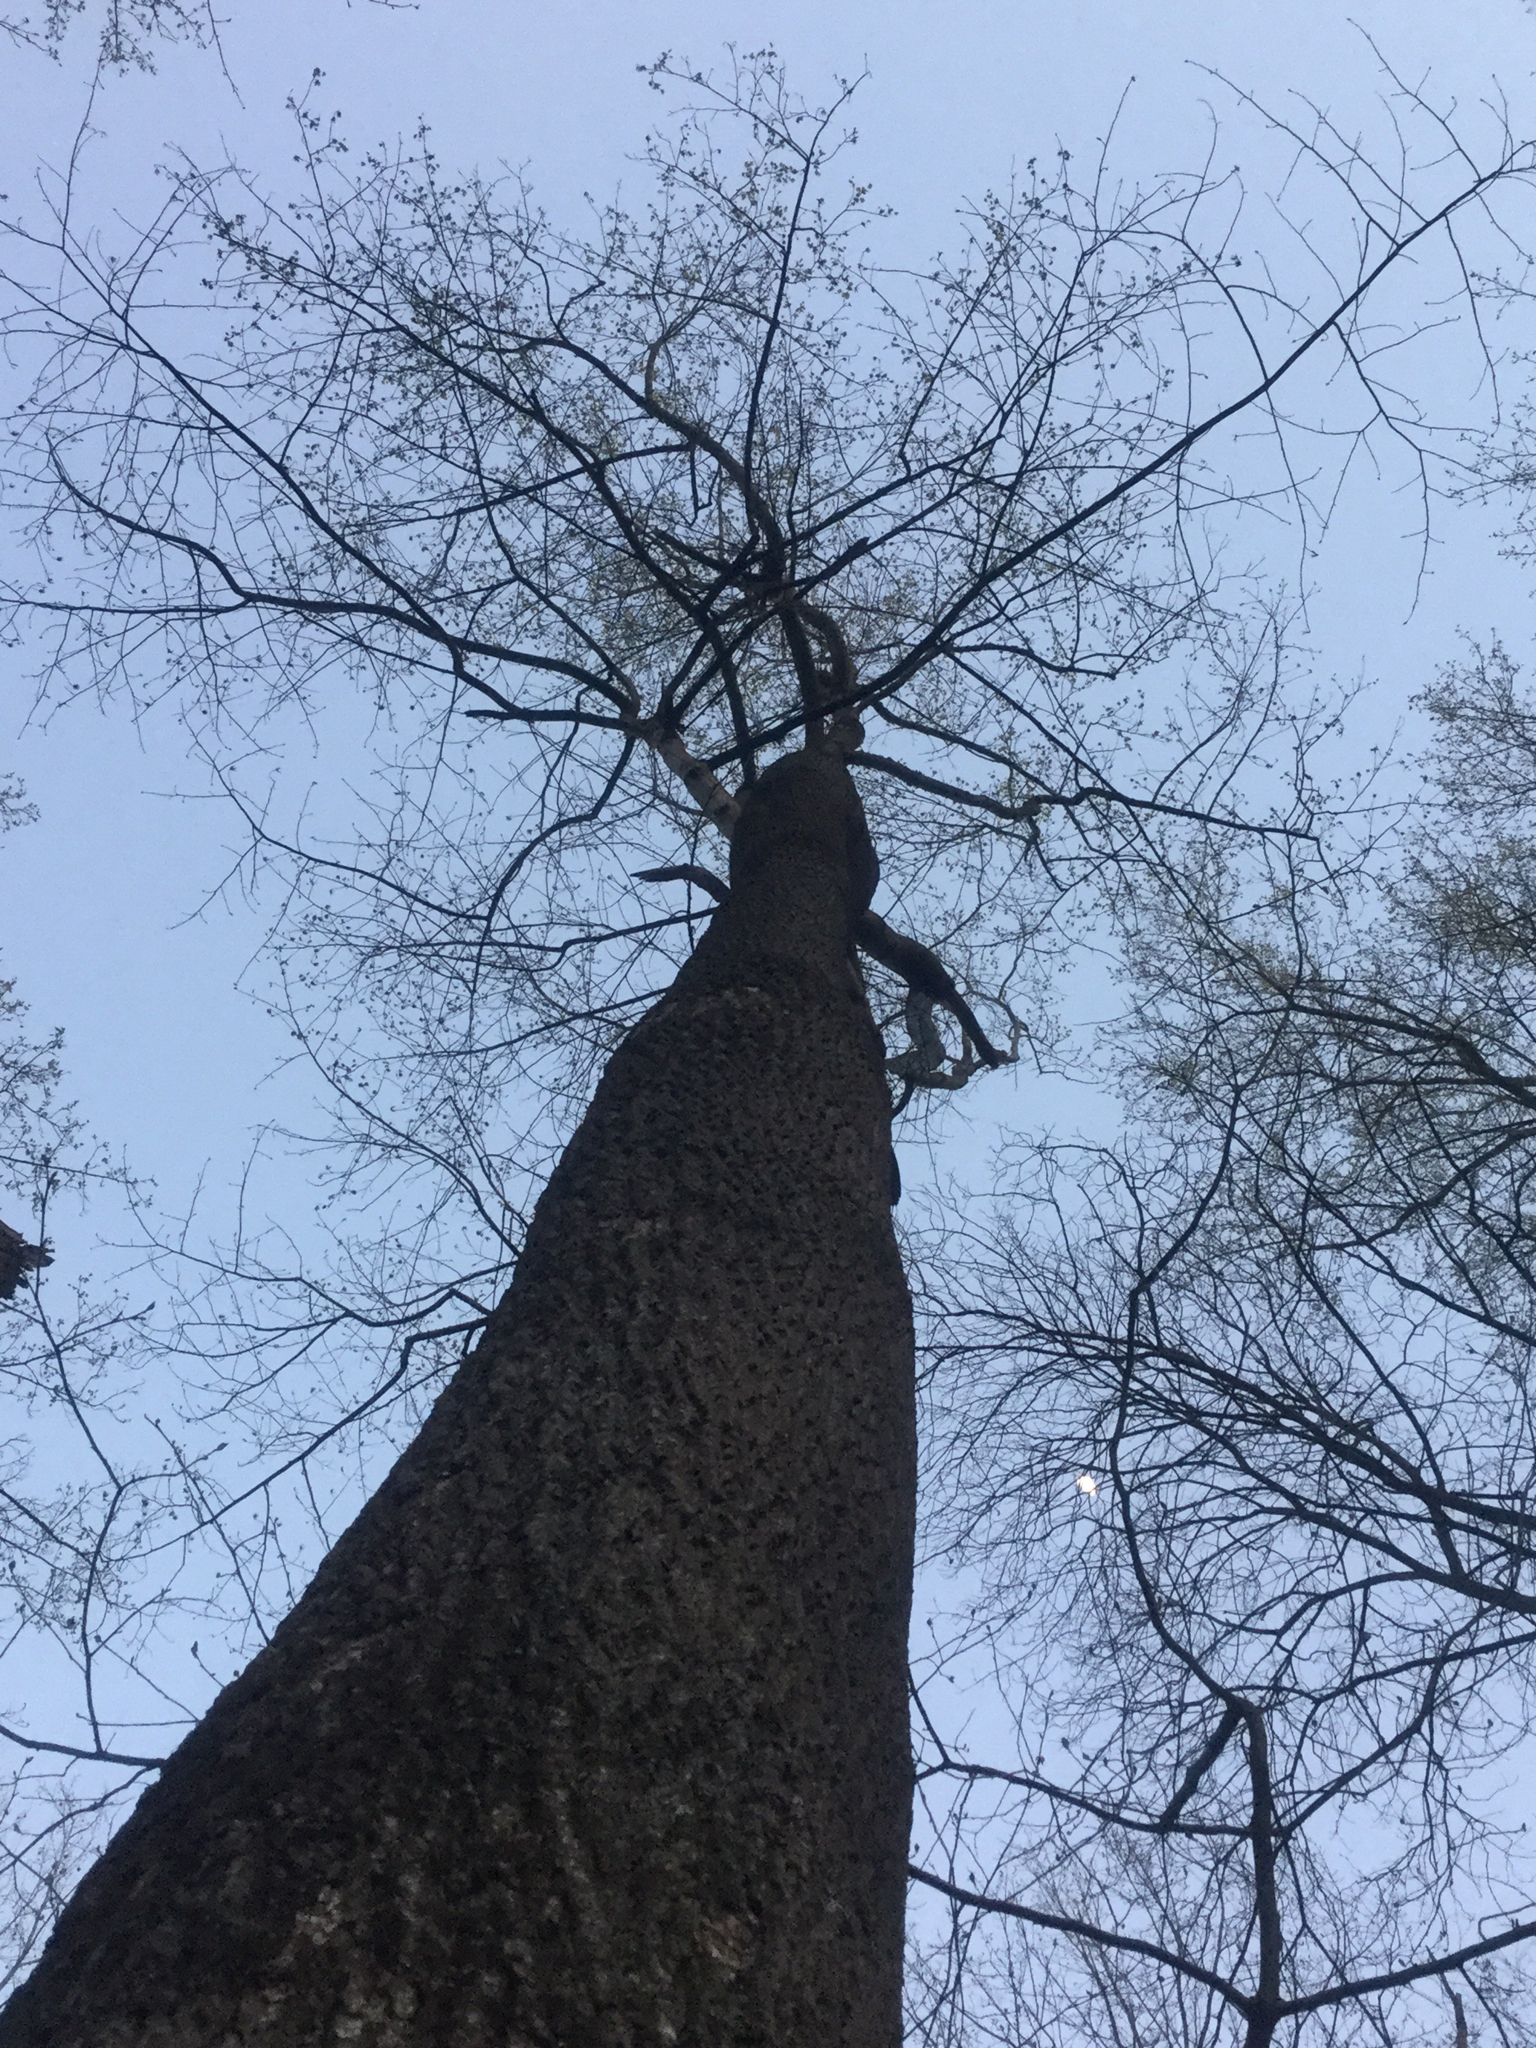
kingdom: Plantae
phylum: Tracheophyta
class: Magnoliopsida
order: Magnoliales
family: Magnoliaceae
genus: Liriodendron
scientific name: Liriodendron tulipifera
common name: Tulip tree
